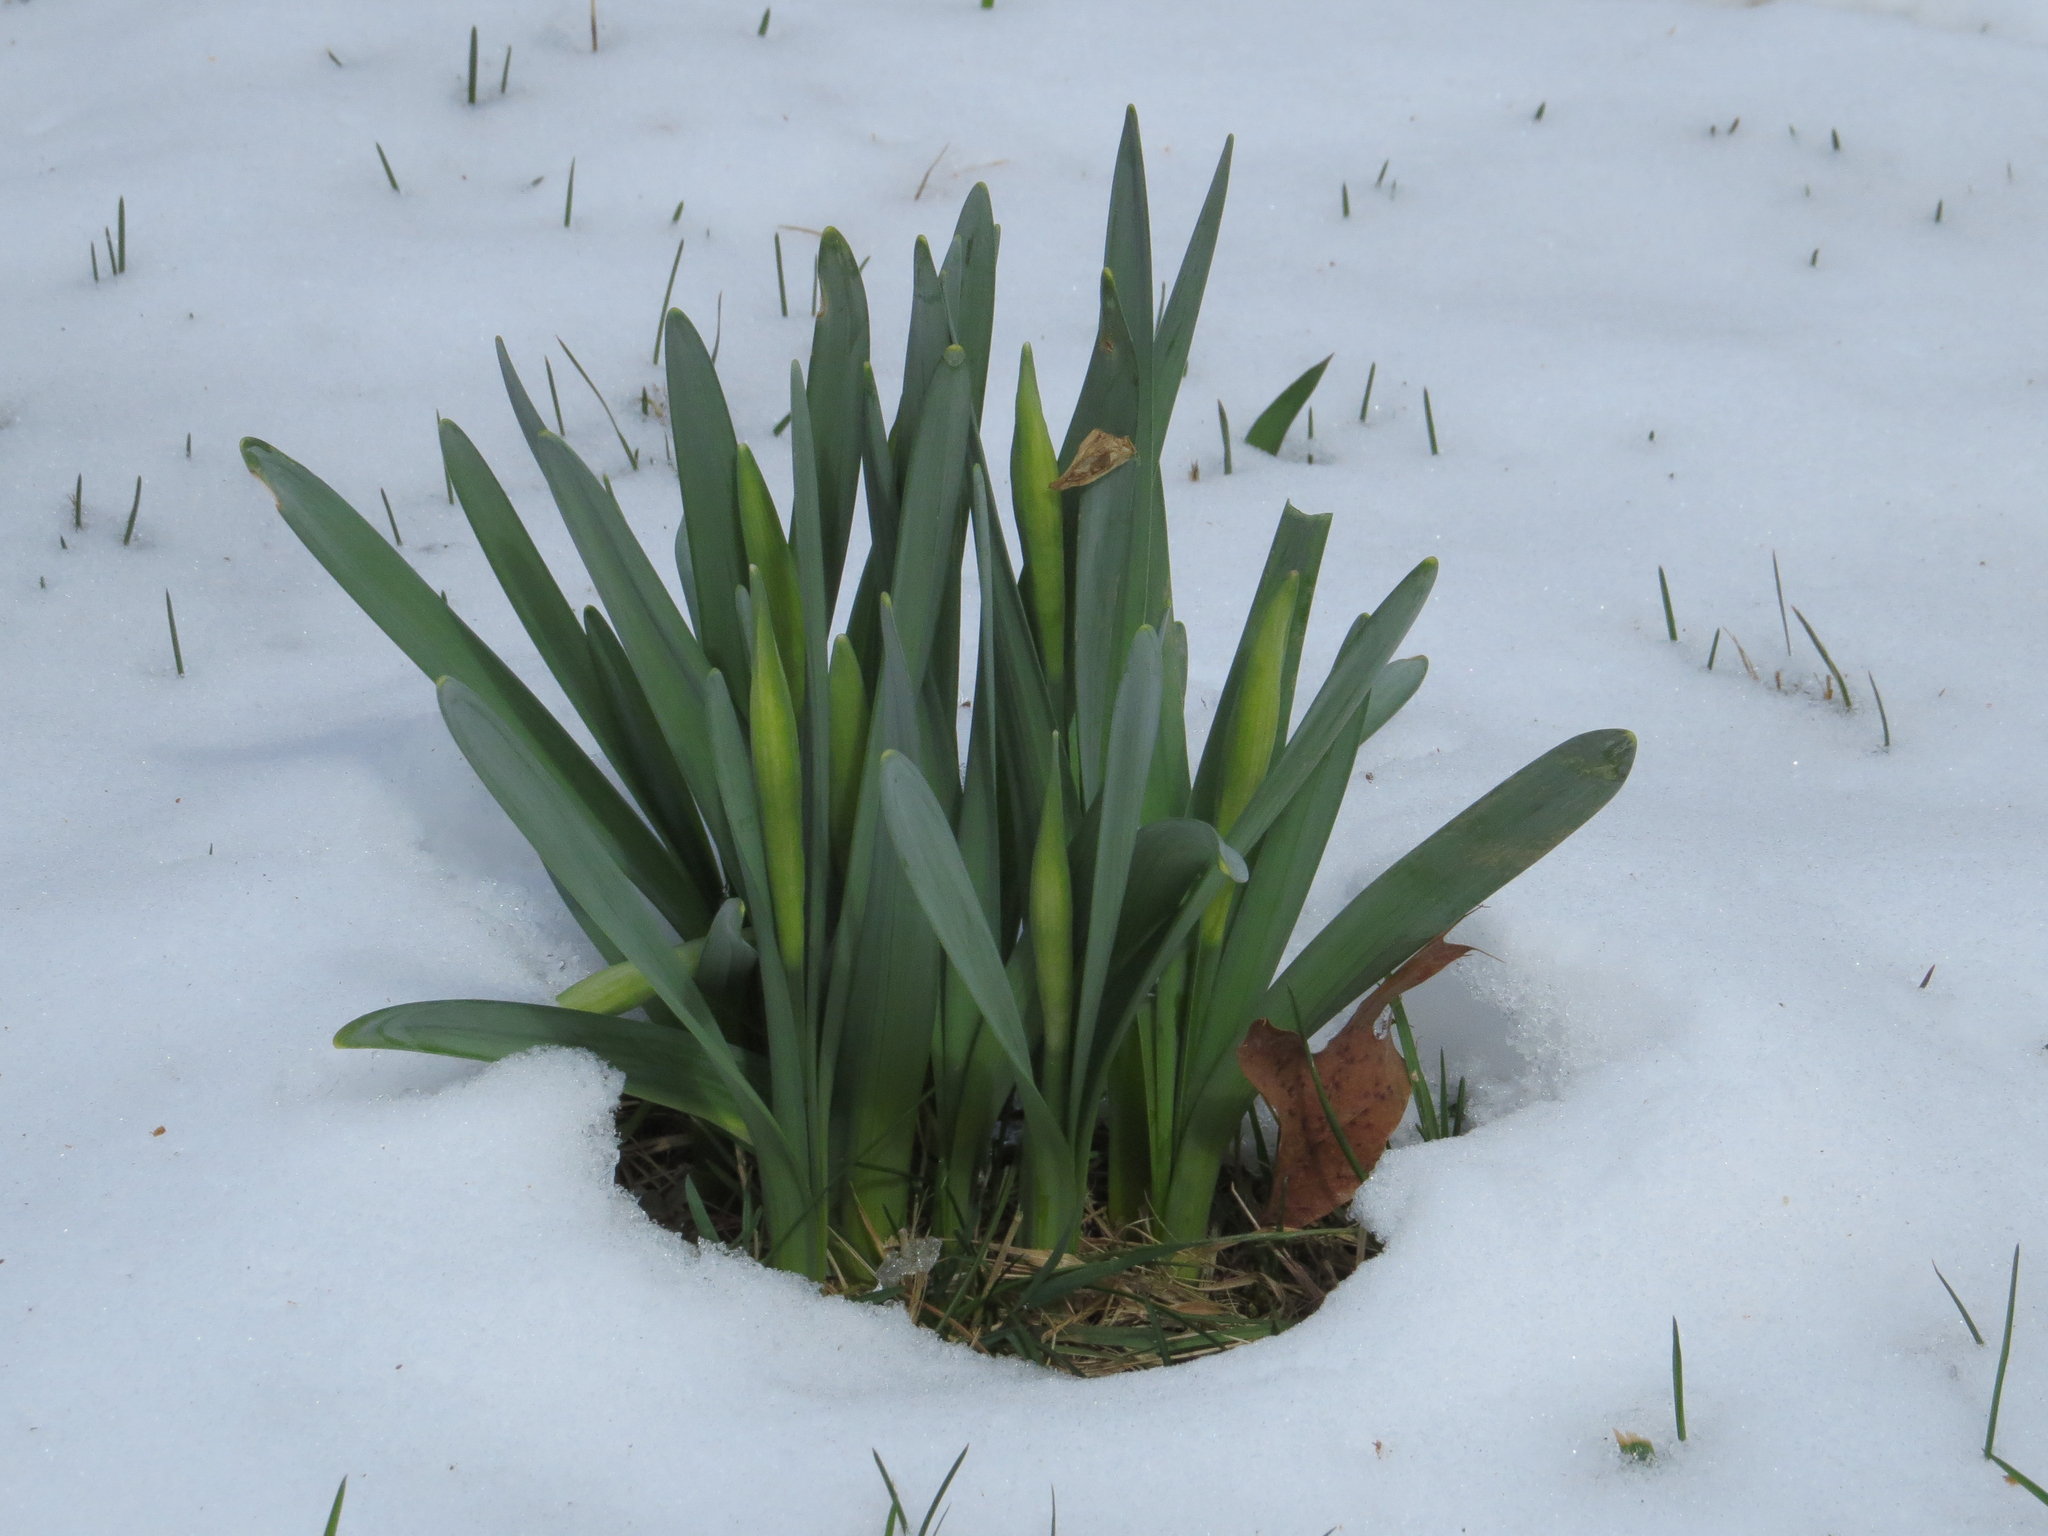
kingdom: Plantae
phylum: Tracheophyta
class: Liliopsida
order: Asparagales
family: Amaryllidaceae
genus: Narcissus
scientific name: Narcissus
